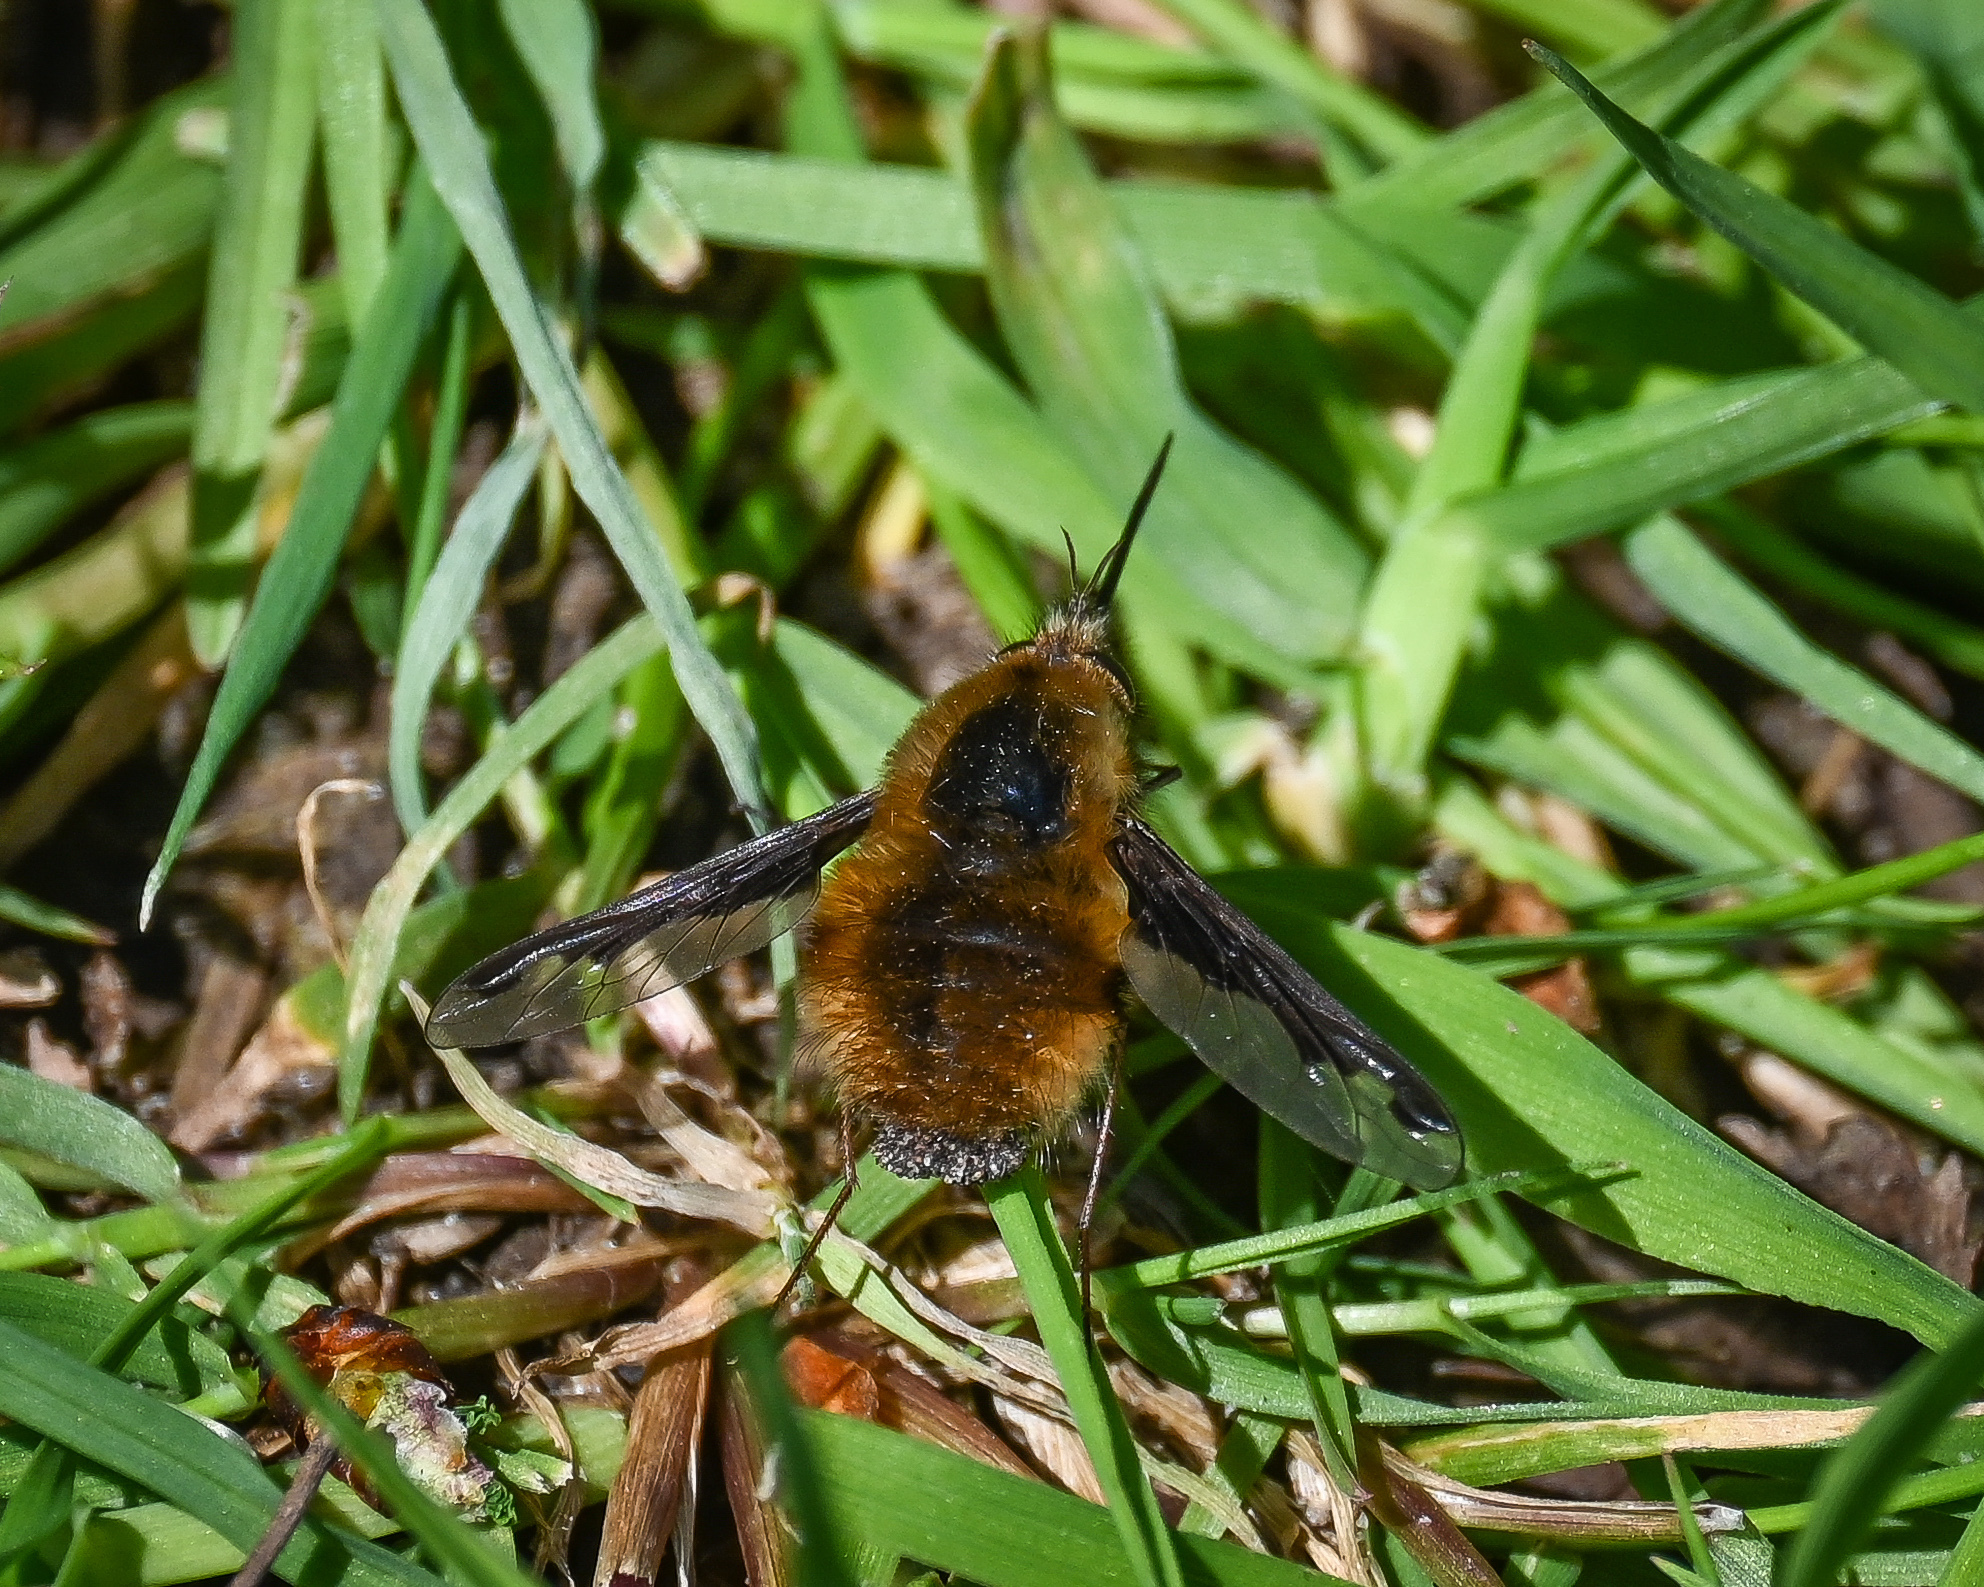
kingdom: Animalia
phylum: Arthropoda
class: Insecta
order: Diptera
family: Bombyliidae
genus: Bombylius
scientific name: Bombylius major
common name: Bee fly
